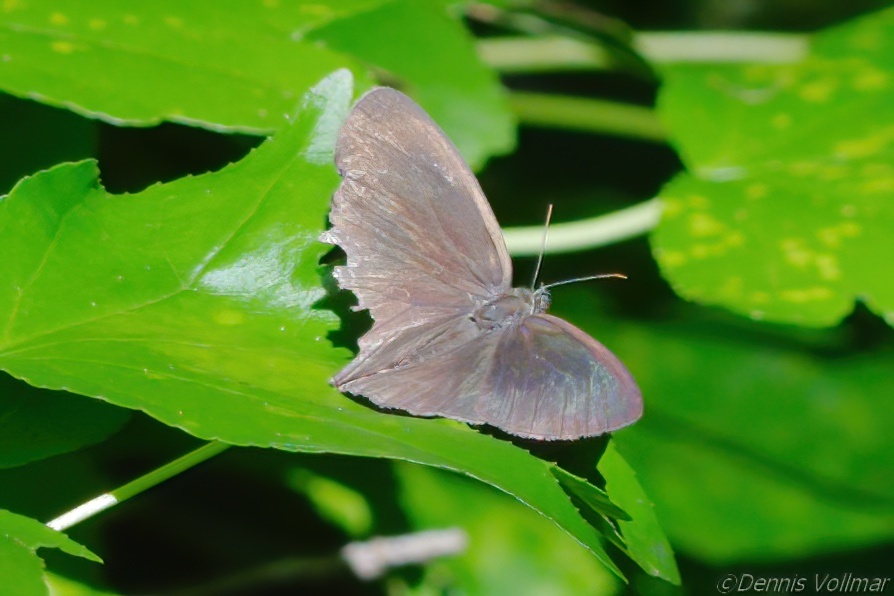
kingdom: Animalia
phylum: Arthropoda
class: Insecta
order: Lepidoptera
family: Nymphalidae
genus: Hermeuptychia
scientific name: Hermeuptychia hermes
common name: Hermes satyr
